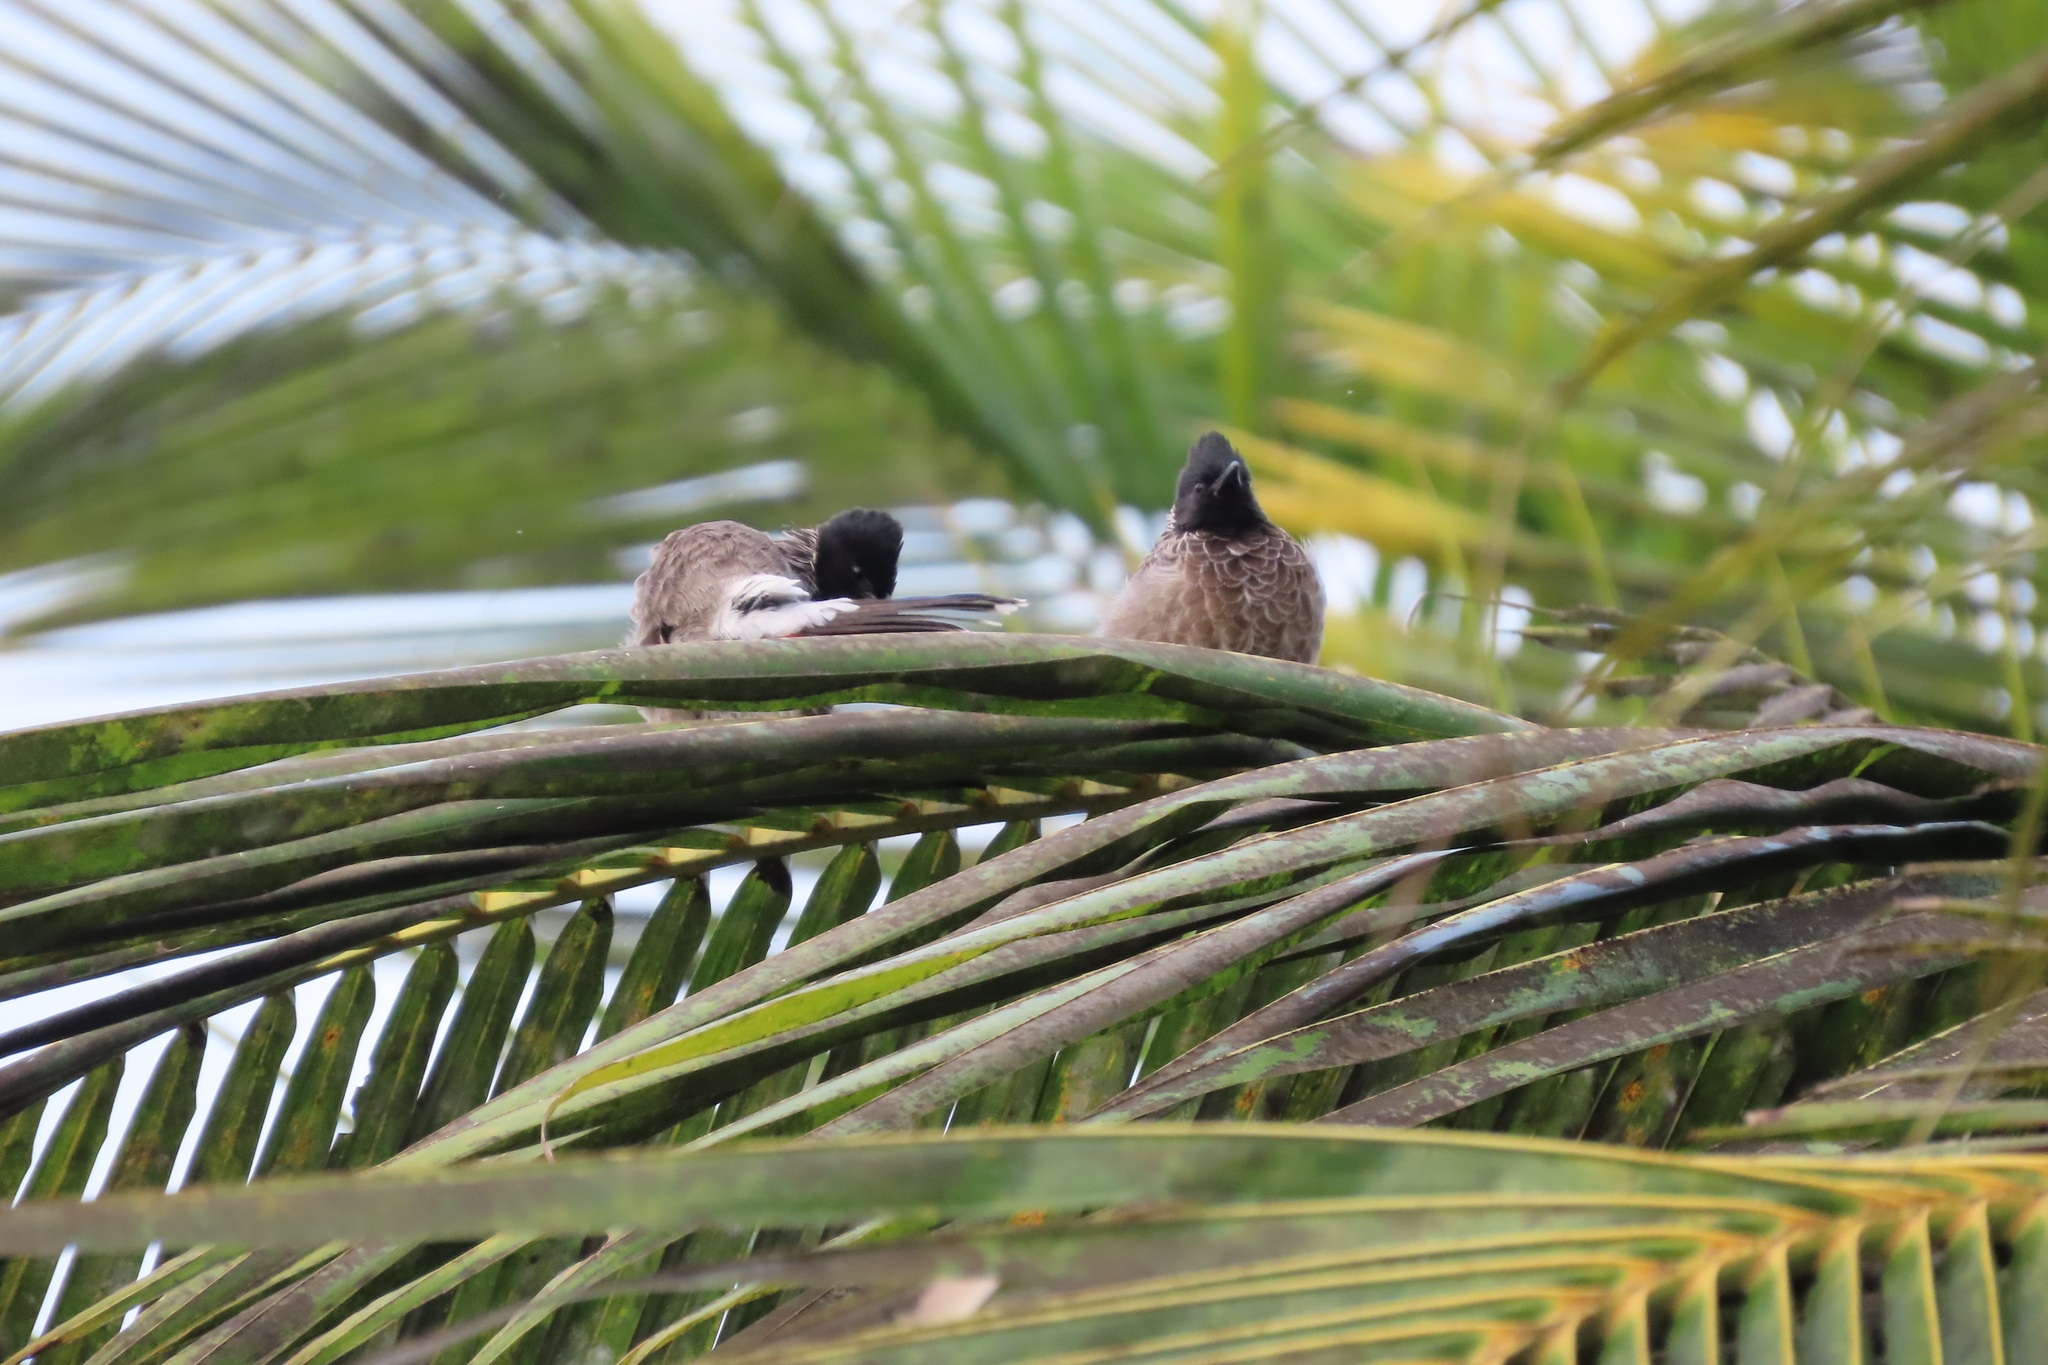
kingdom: Animalia
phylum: Chordata
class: Aves
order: Passeriformes
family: Pycnonotidae
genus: Pycnonotus
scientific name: Pycnonotus cafer
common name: Red-vented bulbul
